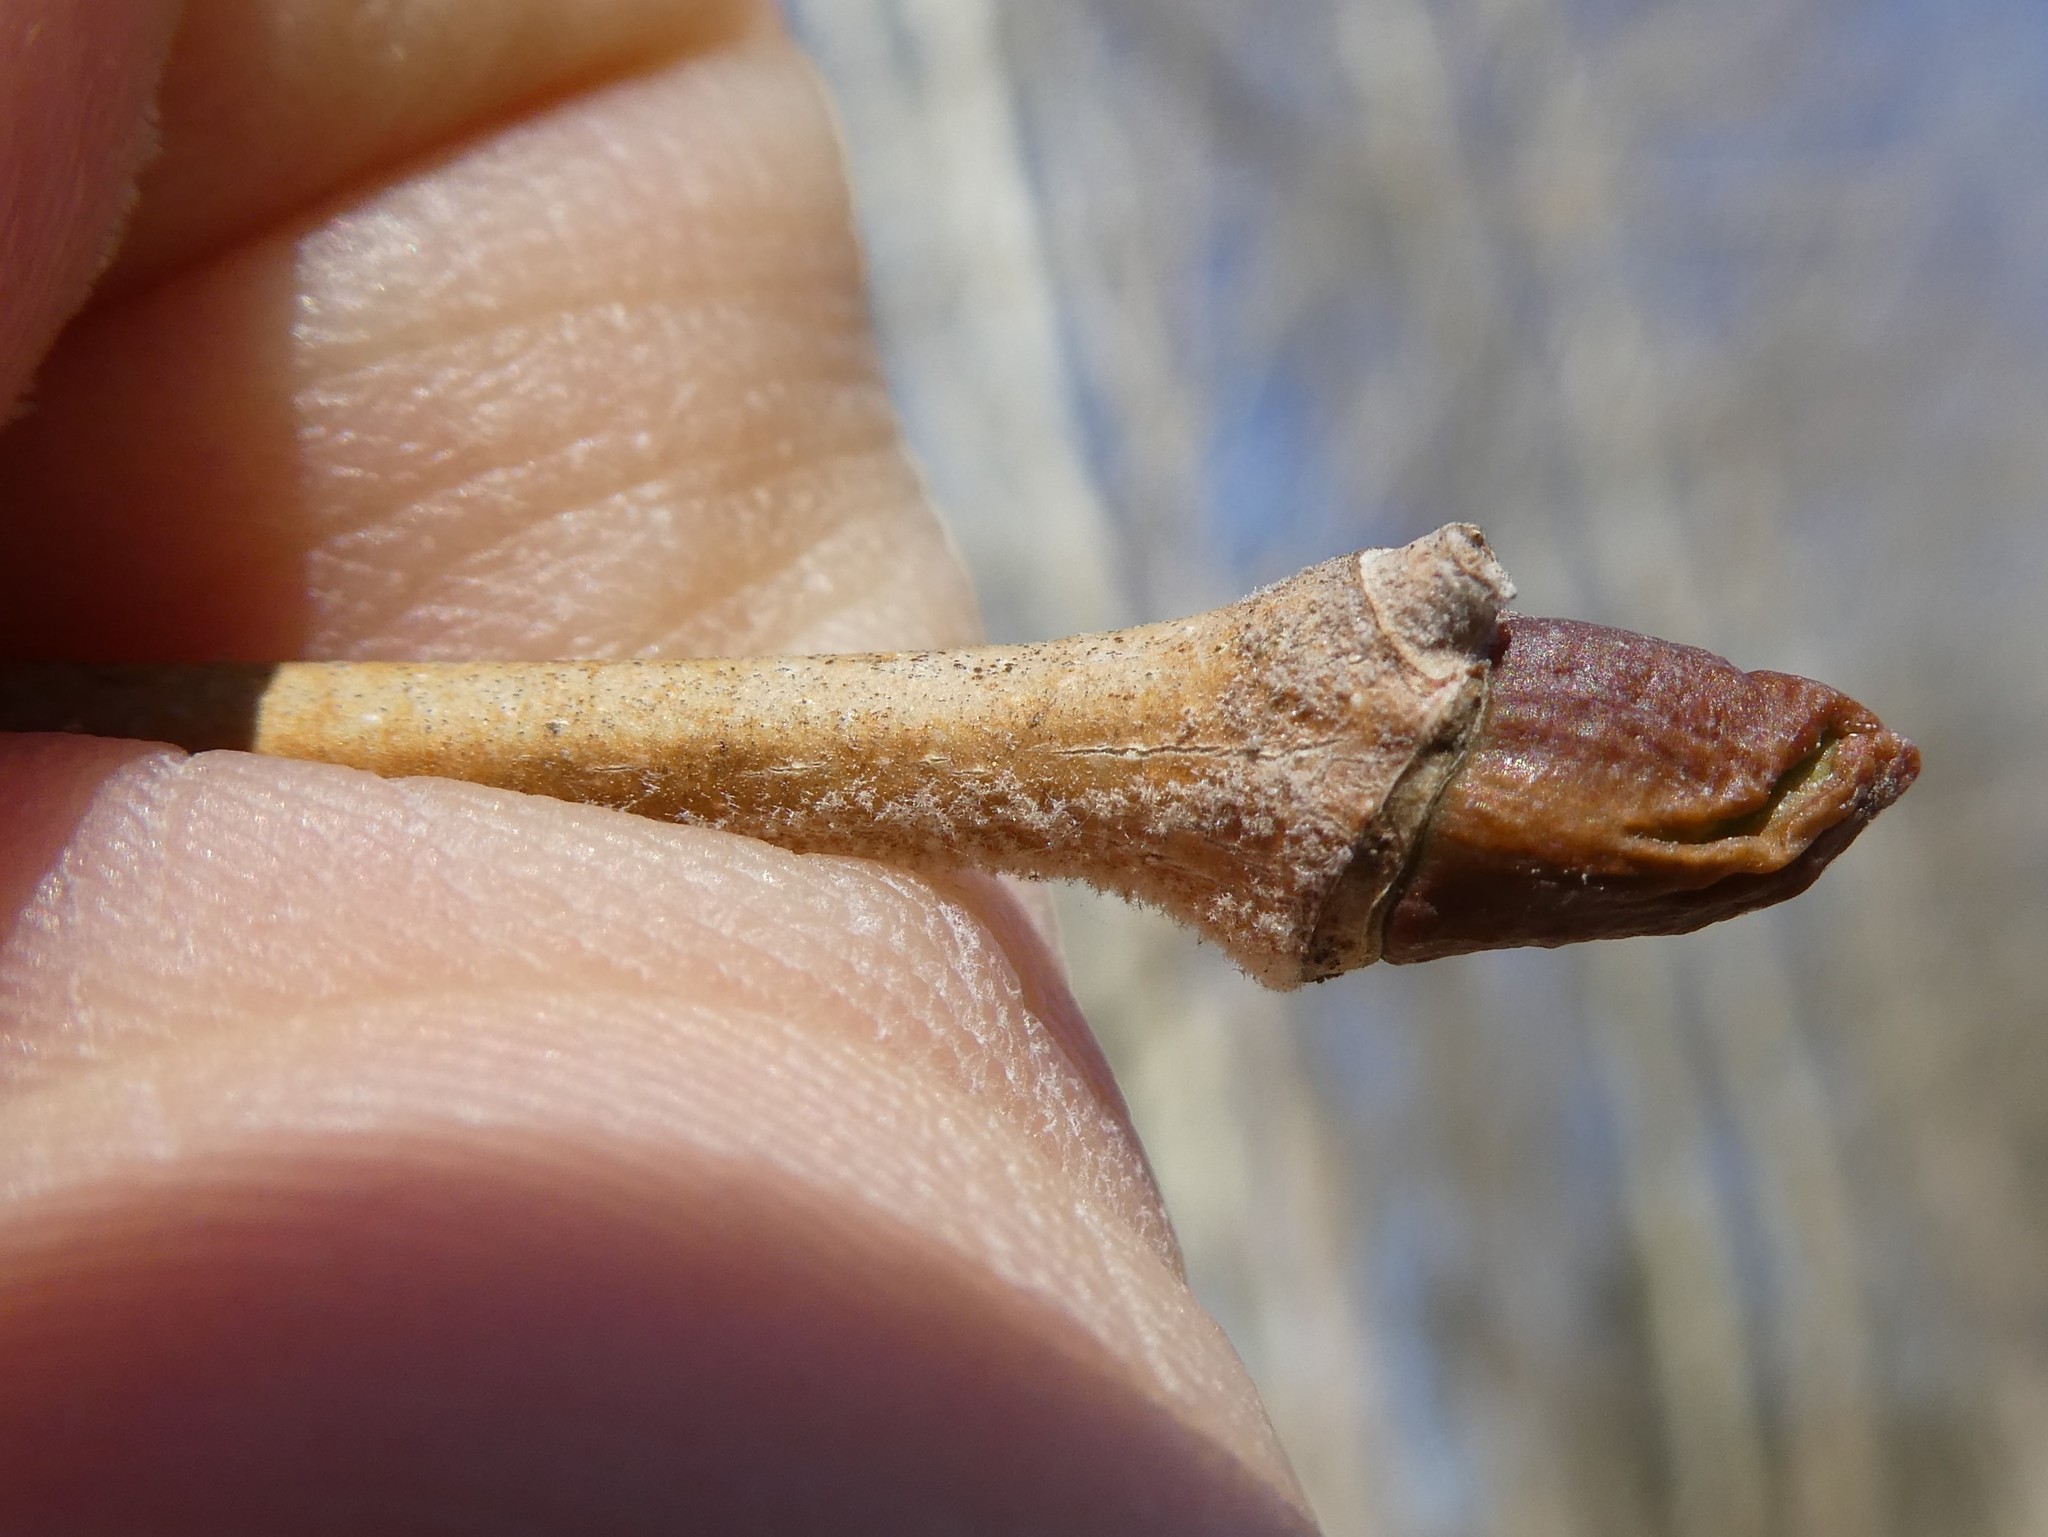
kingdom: Plantae
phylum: Tracheophyta
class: Magnoliopsida
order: Proteales
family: Platanaceae
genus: Platanus
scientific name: Platanus occidentalis
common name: American sycamore
